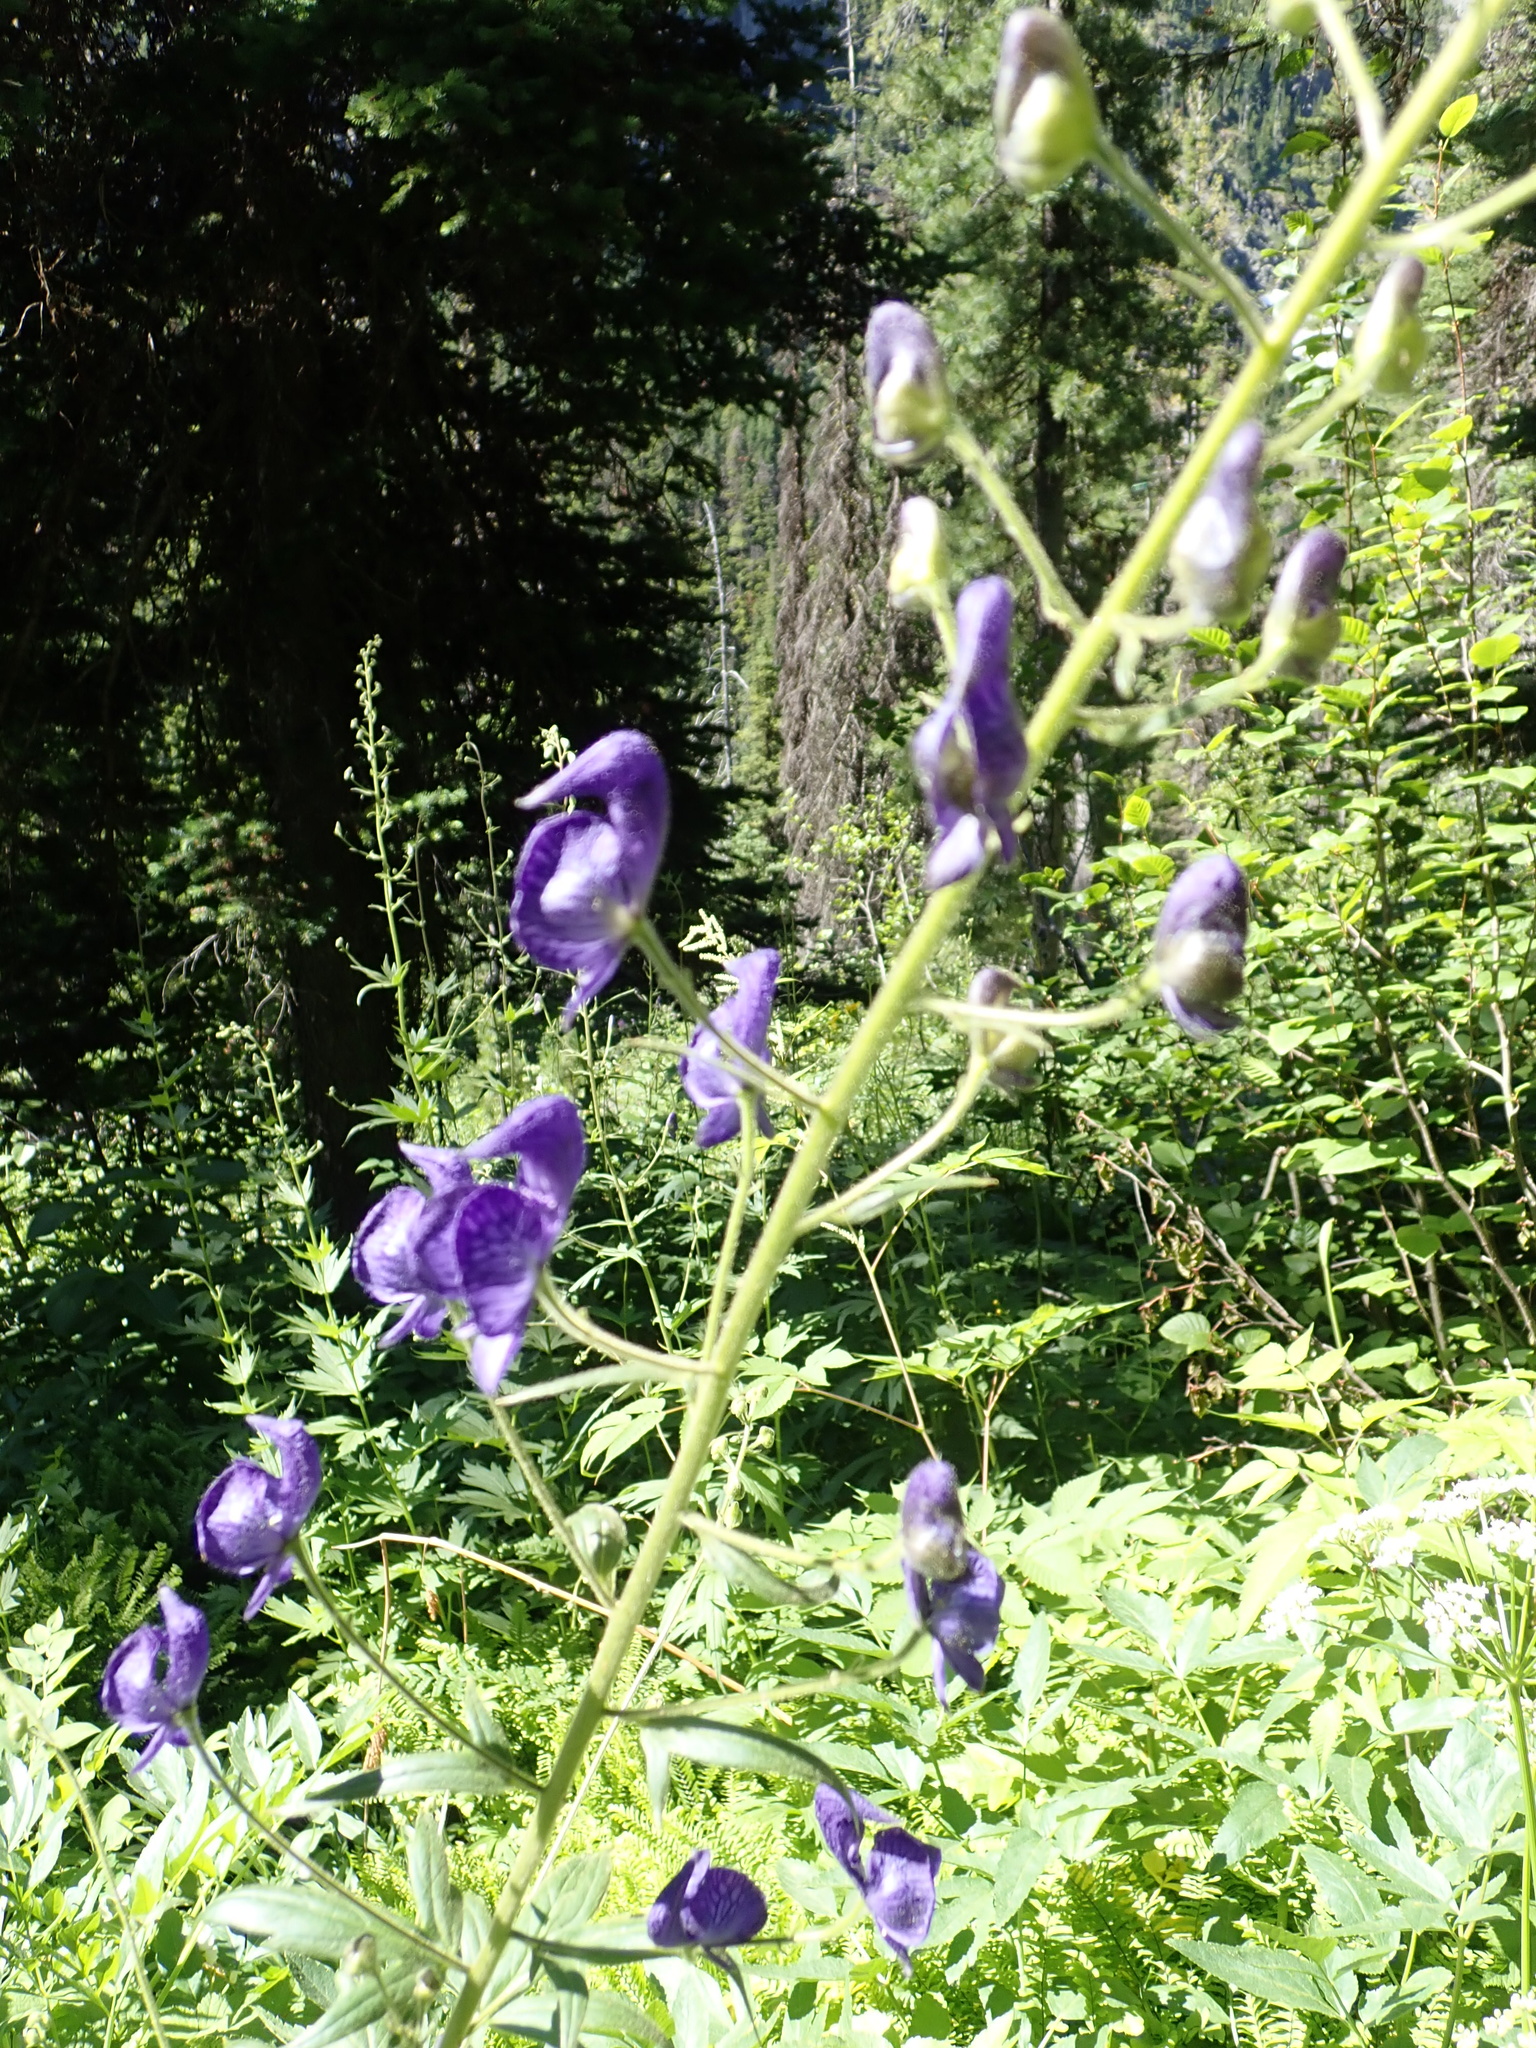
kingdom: Plantae
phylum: Tracheophyta
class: Magnoliopsida
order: Ranunculales
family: Ranunculaceae
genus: Aconitum
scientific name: Aconitum columbianum
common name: Columbia aconite
